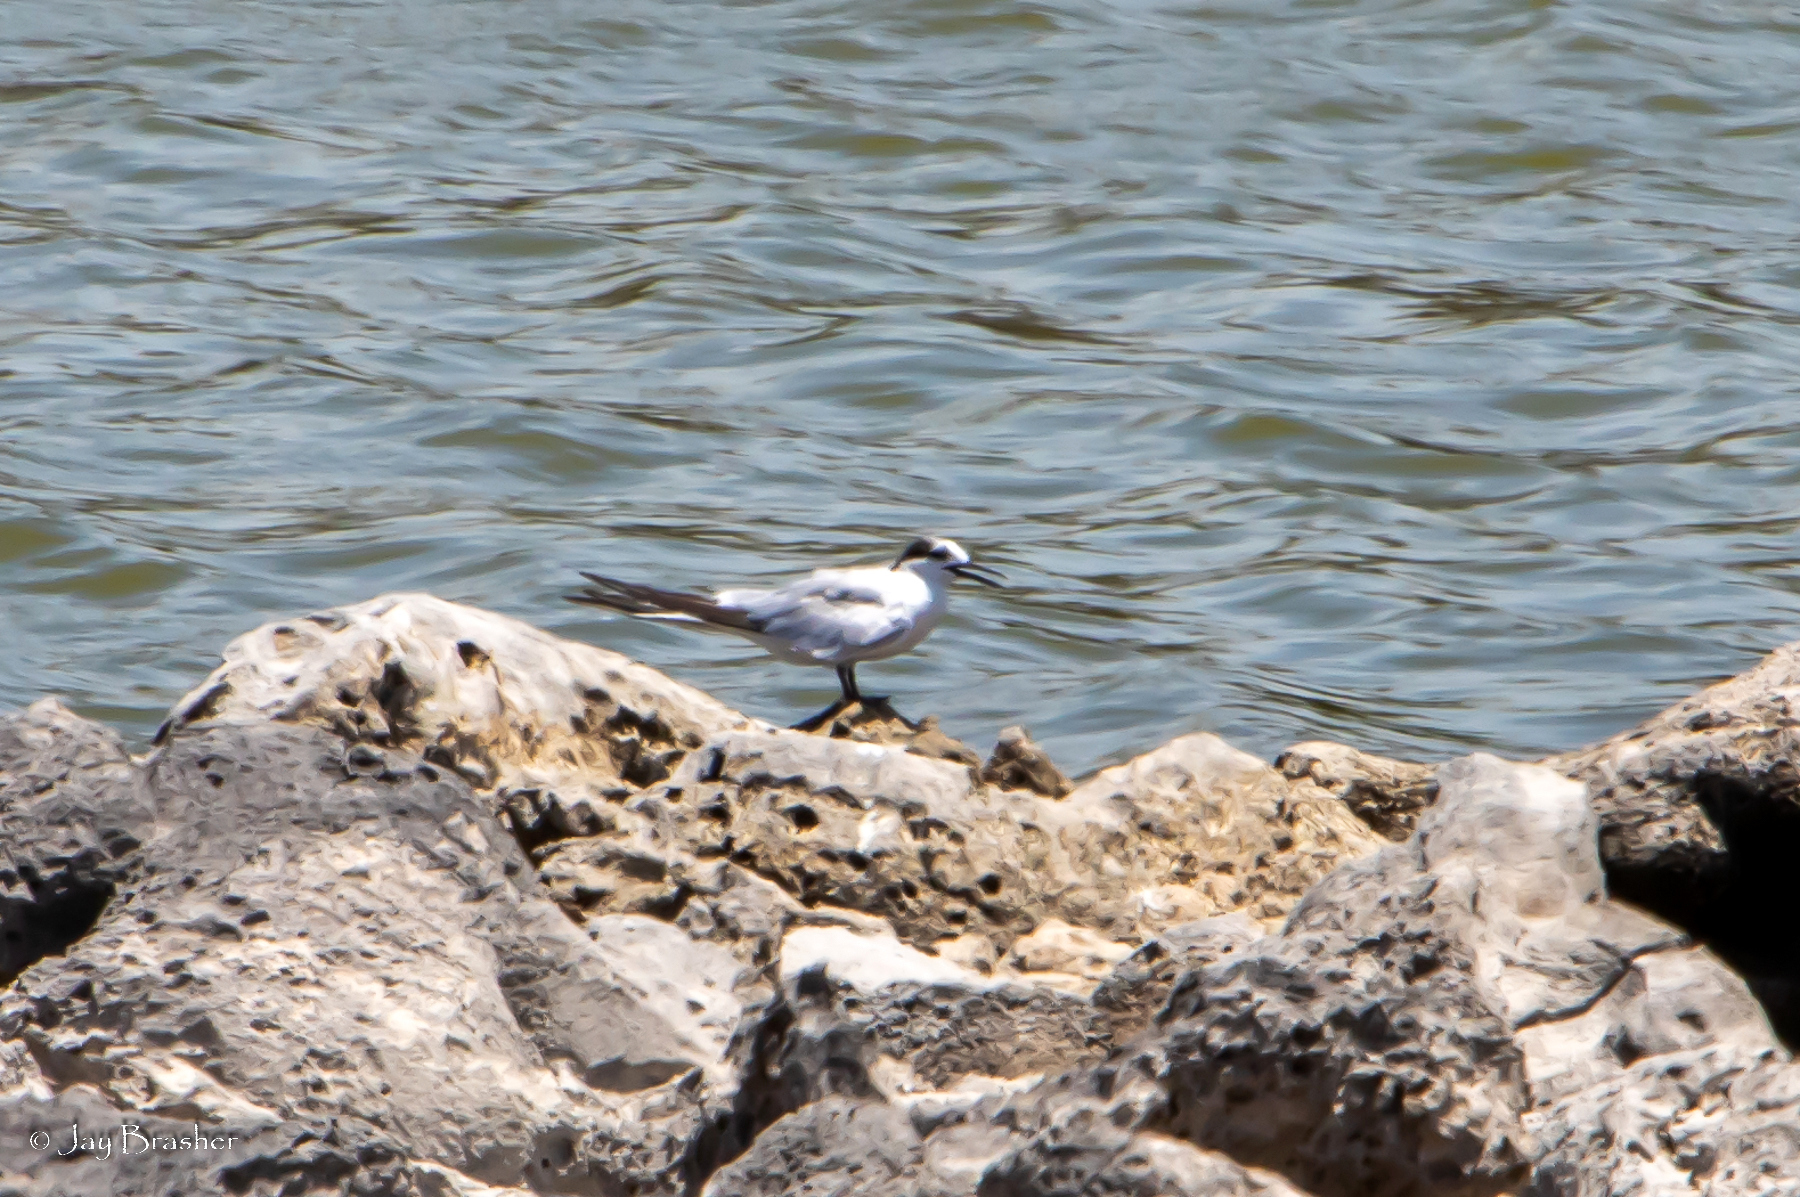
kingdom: Animalia
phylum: Chordata
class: Aves
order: Charadriiformes
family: Laridae
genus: Thalasseus
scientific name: Thalasseus sandvicensis
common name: Sandwich tern
